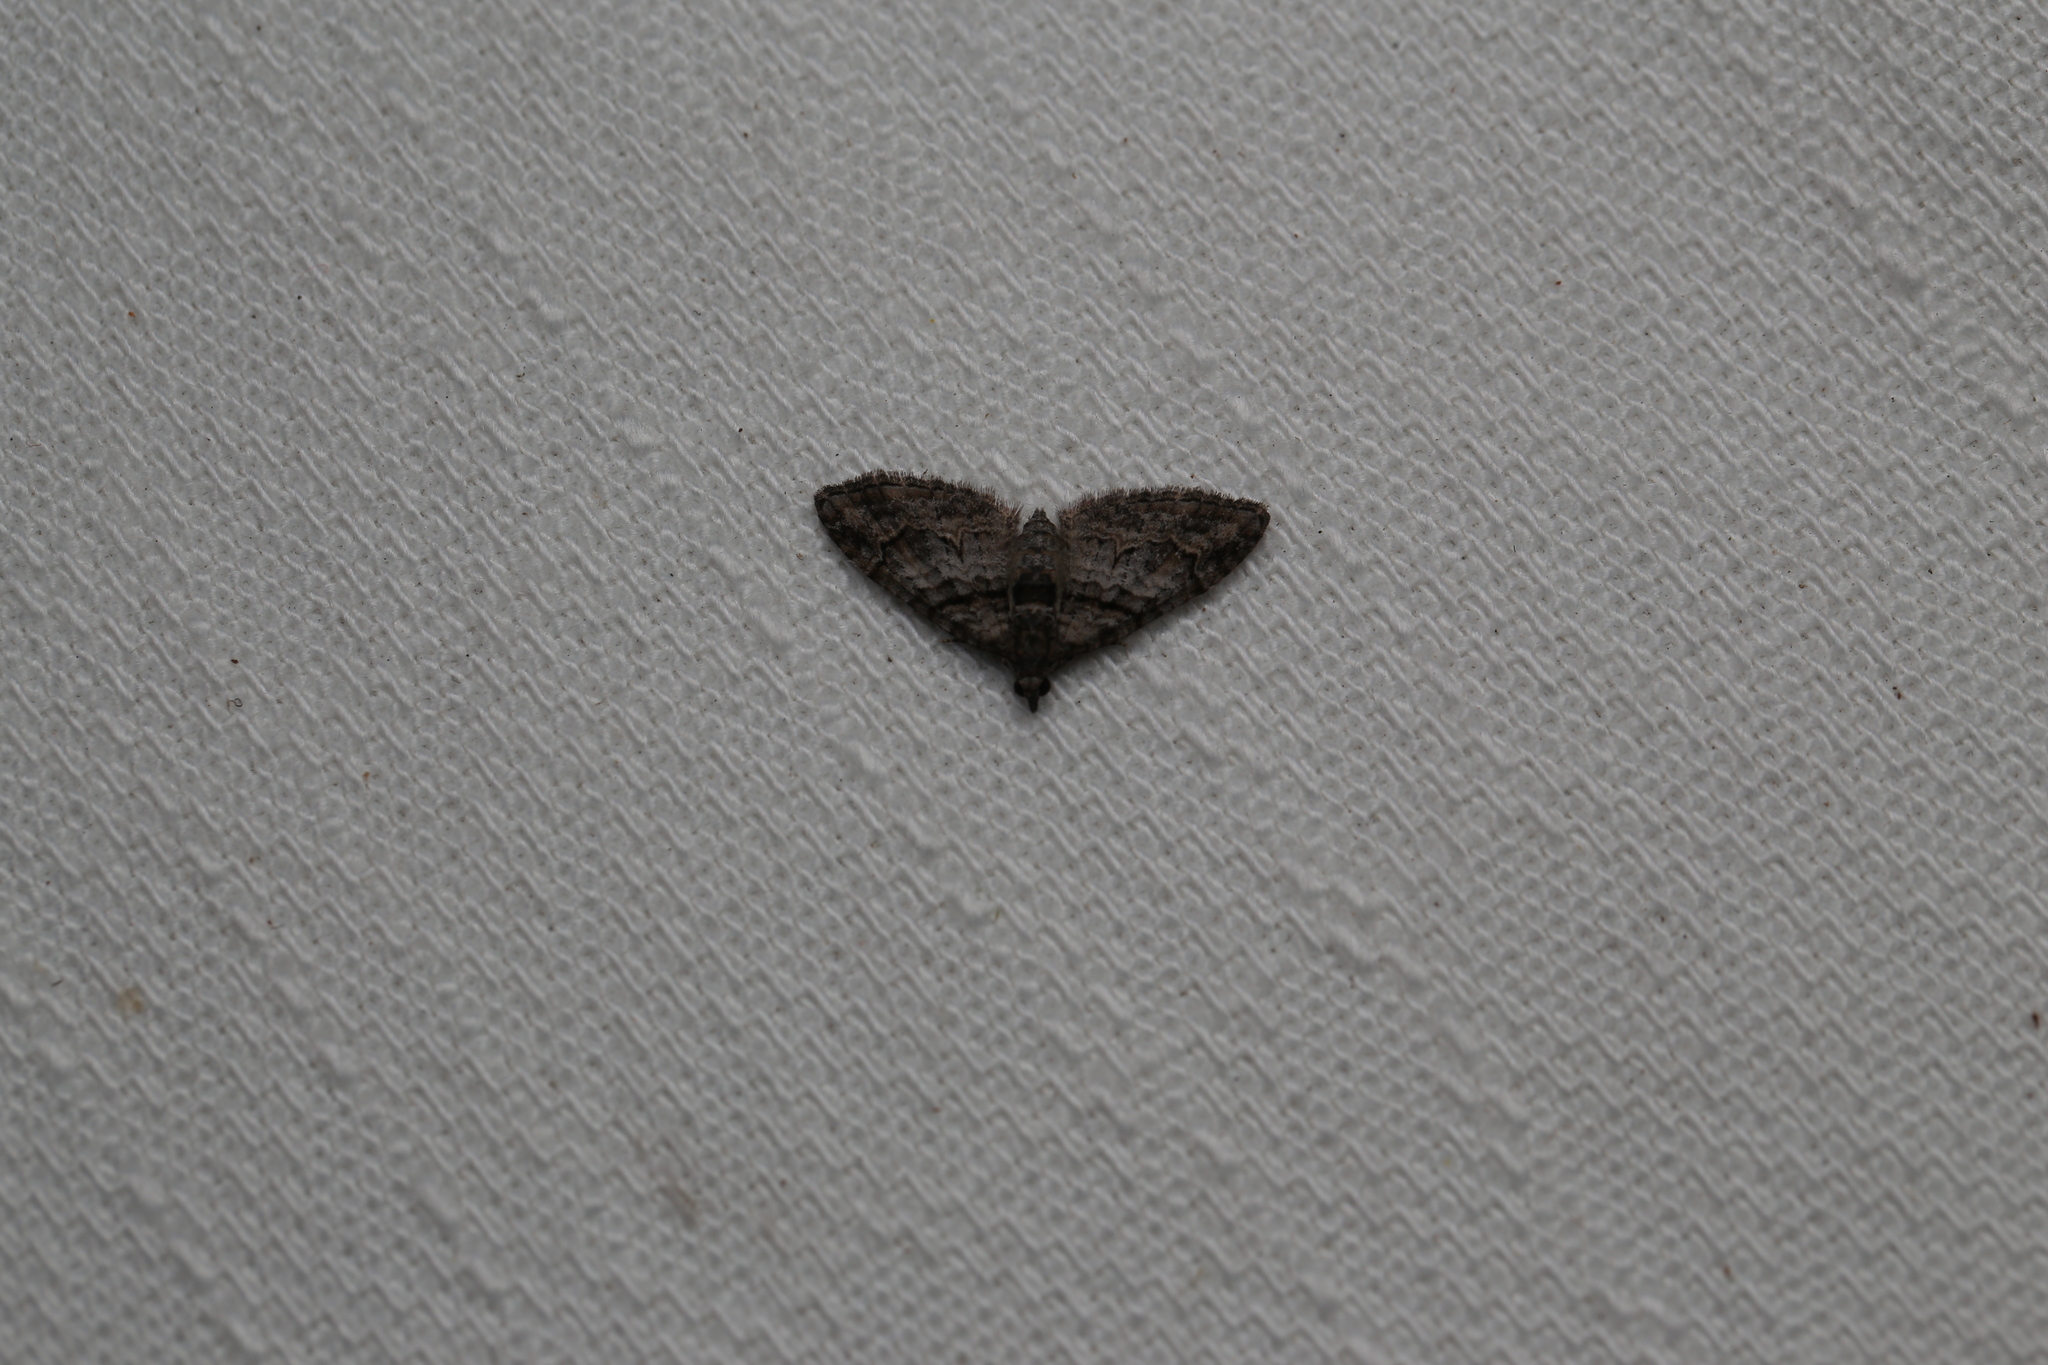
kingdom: Animalia
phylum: Arthropoda
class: Insecta
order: Lepidoptera
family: Geometridae
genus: Phrissogonus
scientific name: Phrissogonus laticostata
